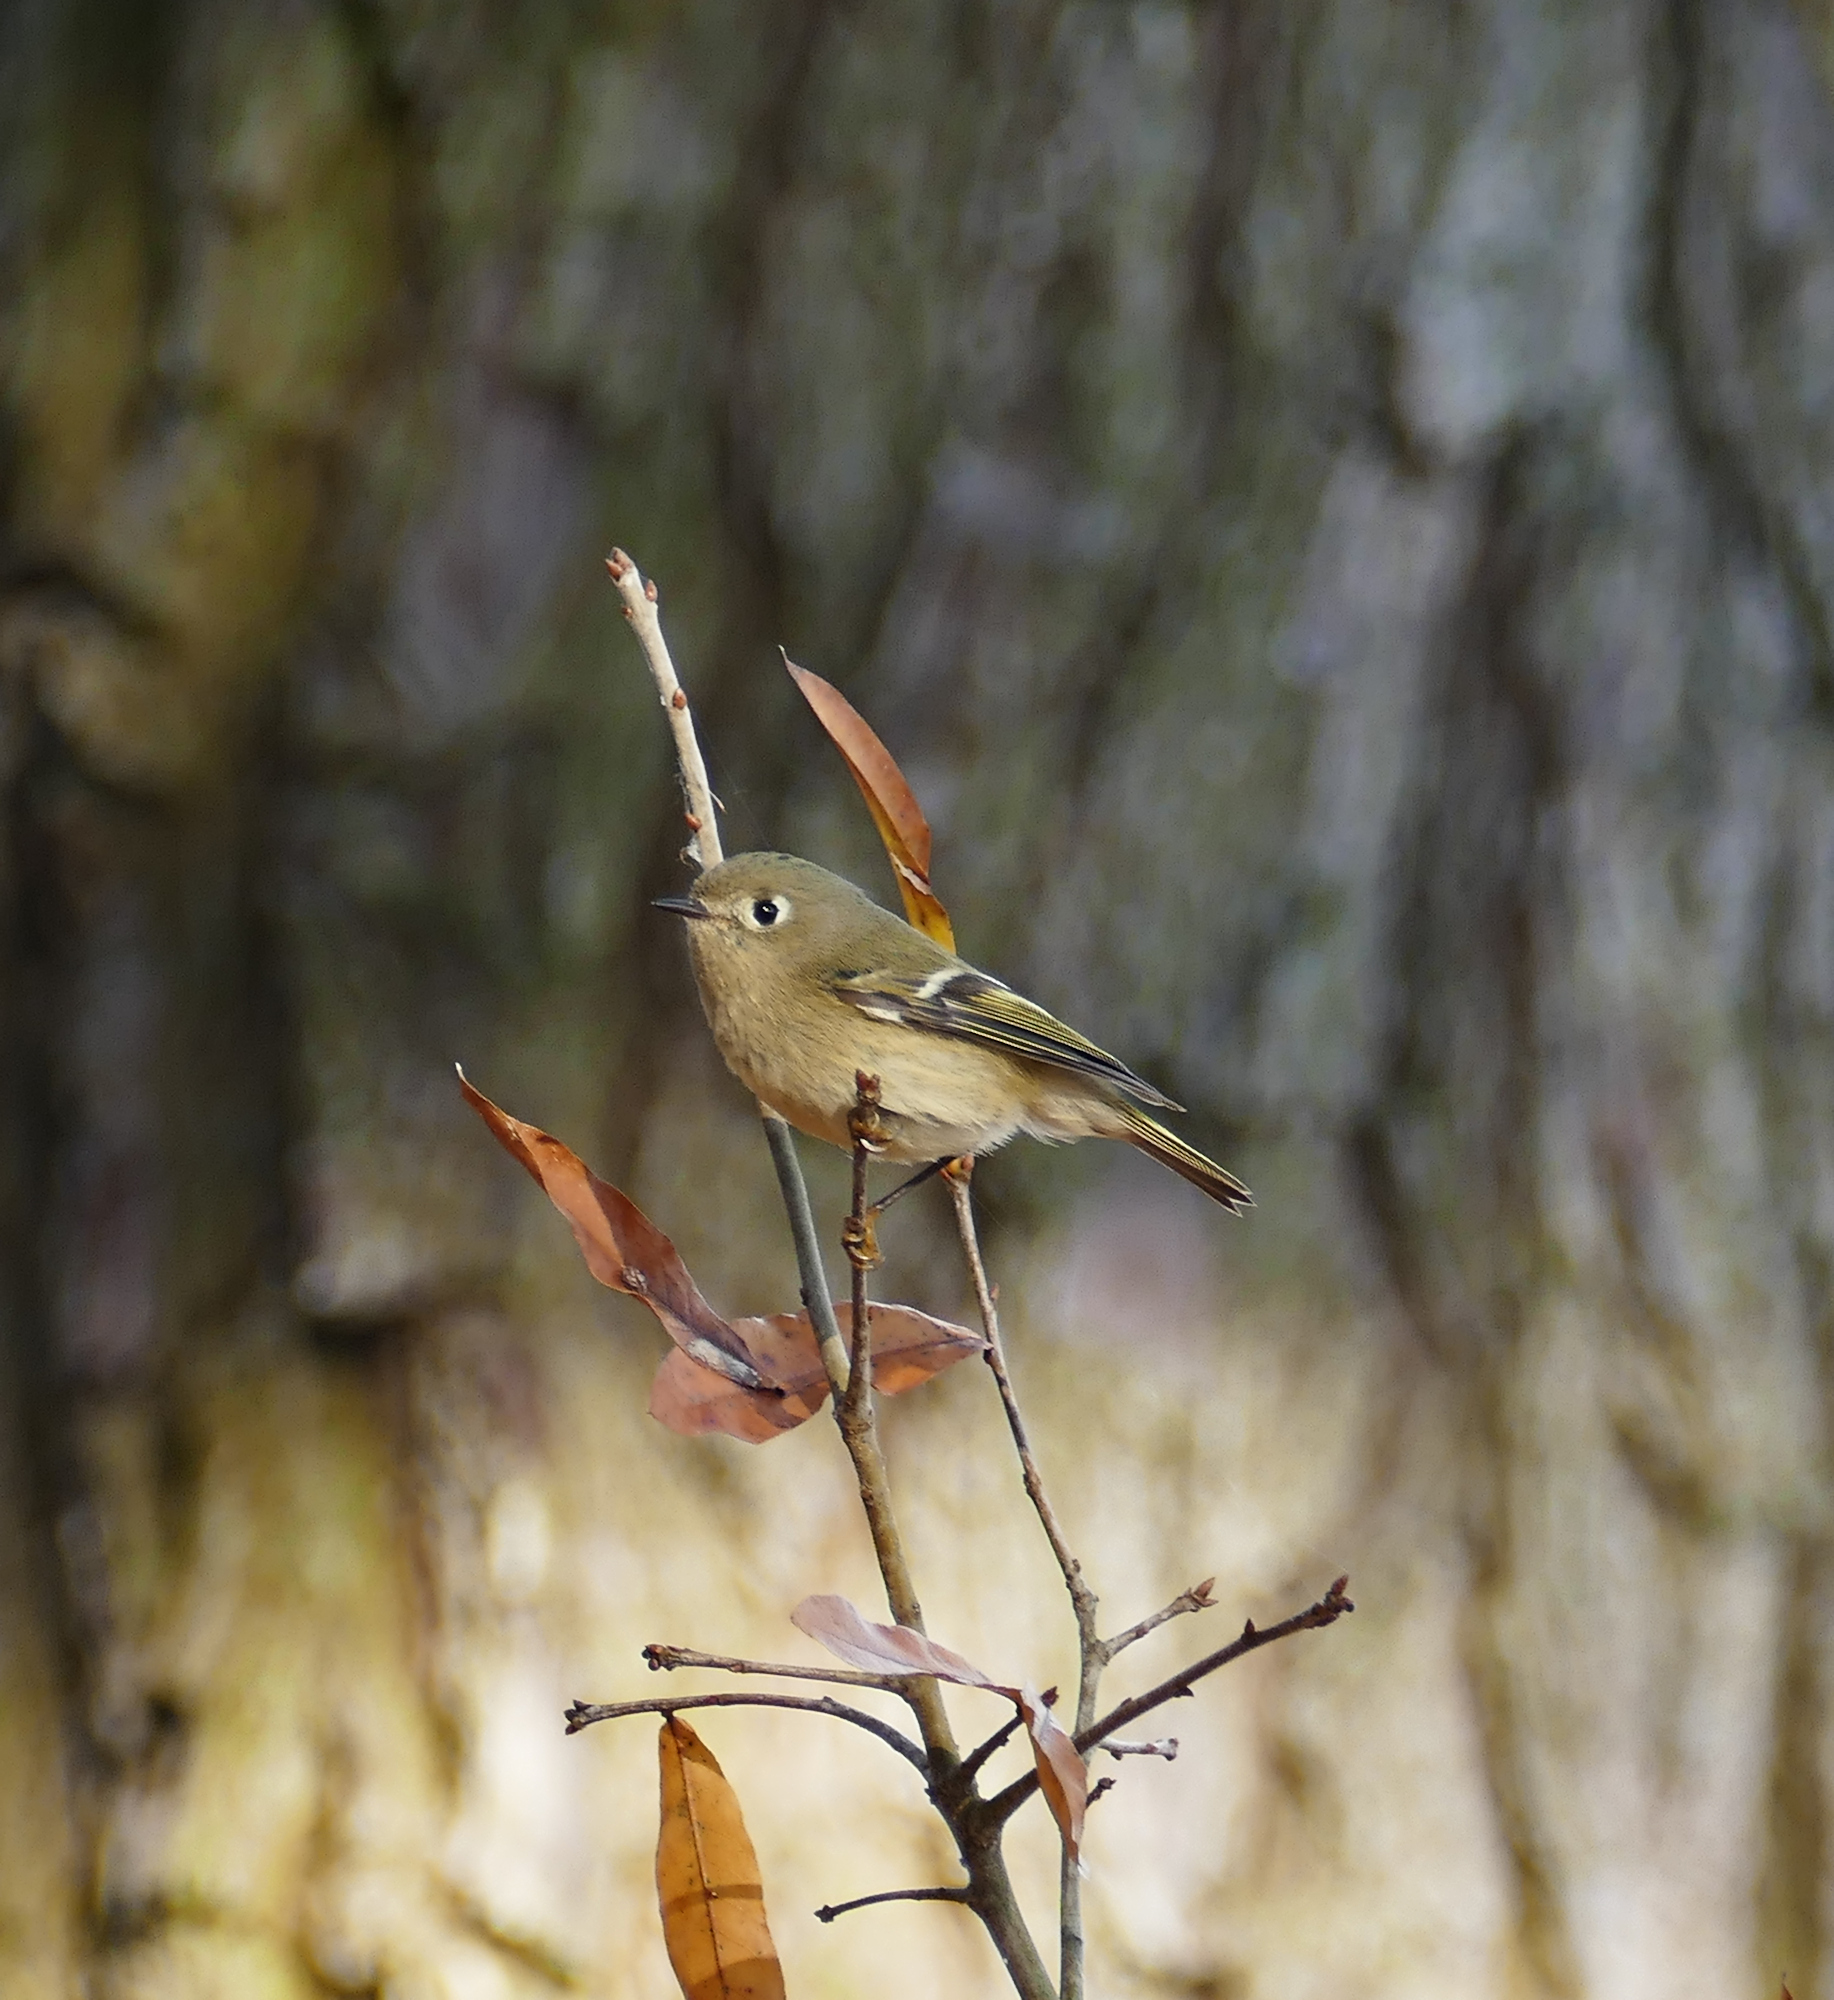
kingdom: Animalia
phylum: Chordata
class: Aves
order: Passeriformes
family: Regulidae
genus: Regulus
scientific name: Regulus calendula
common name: Ruby-crowned kinglet
